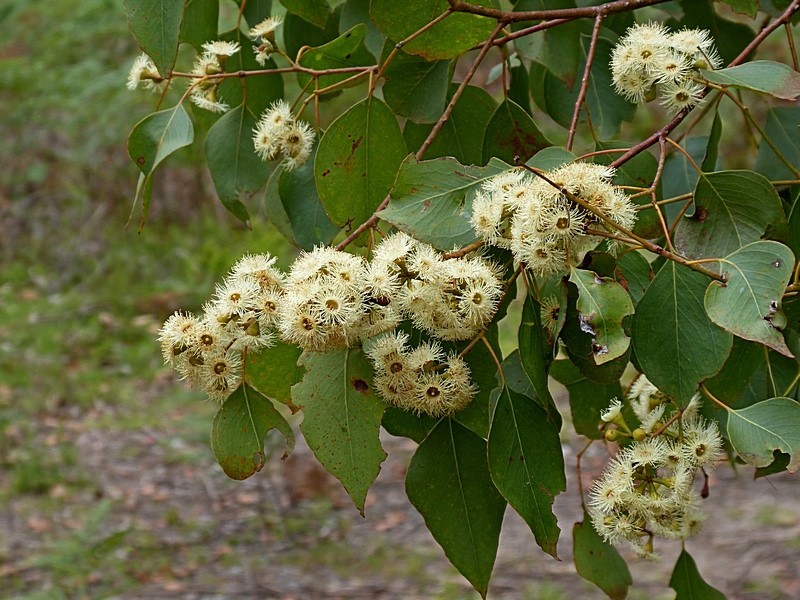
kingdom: Plantae
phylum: Tracheophyta
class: Magnoliopsida
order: Myrtales
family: Myrtaceae
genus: Eucalyptus
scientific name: Eucalyptus baueriana
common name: Round-leaf-box
